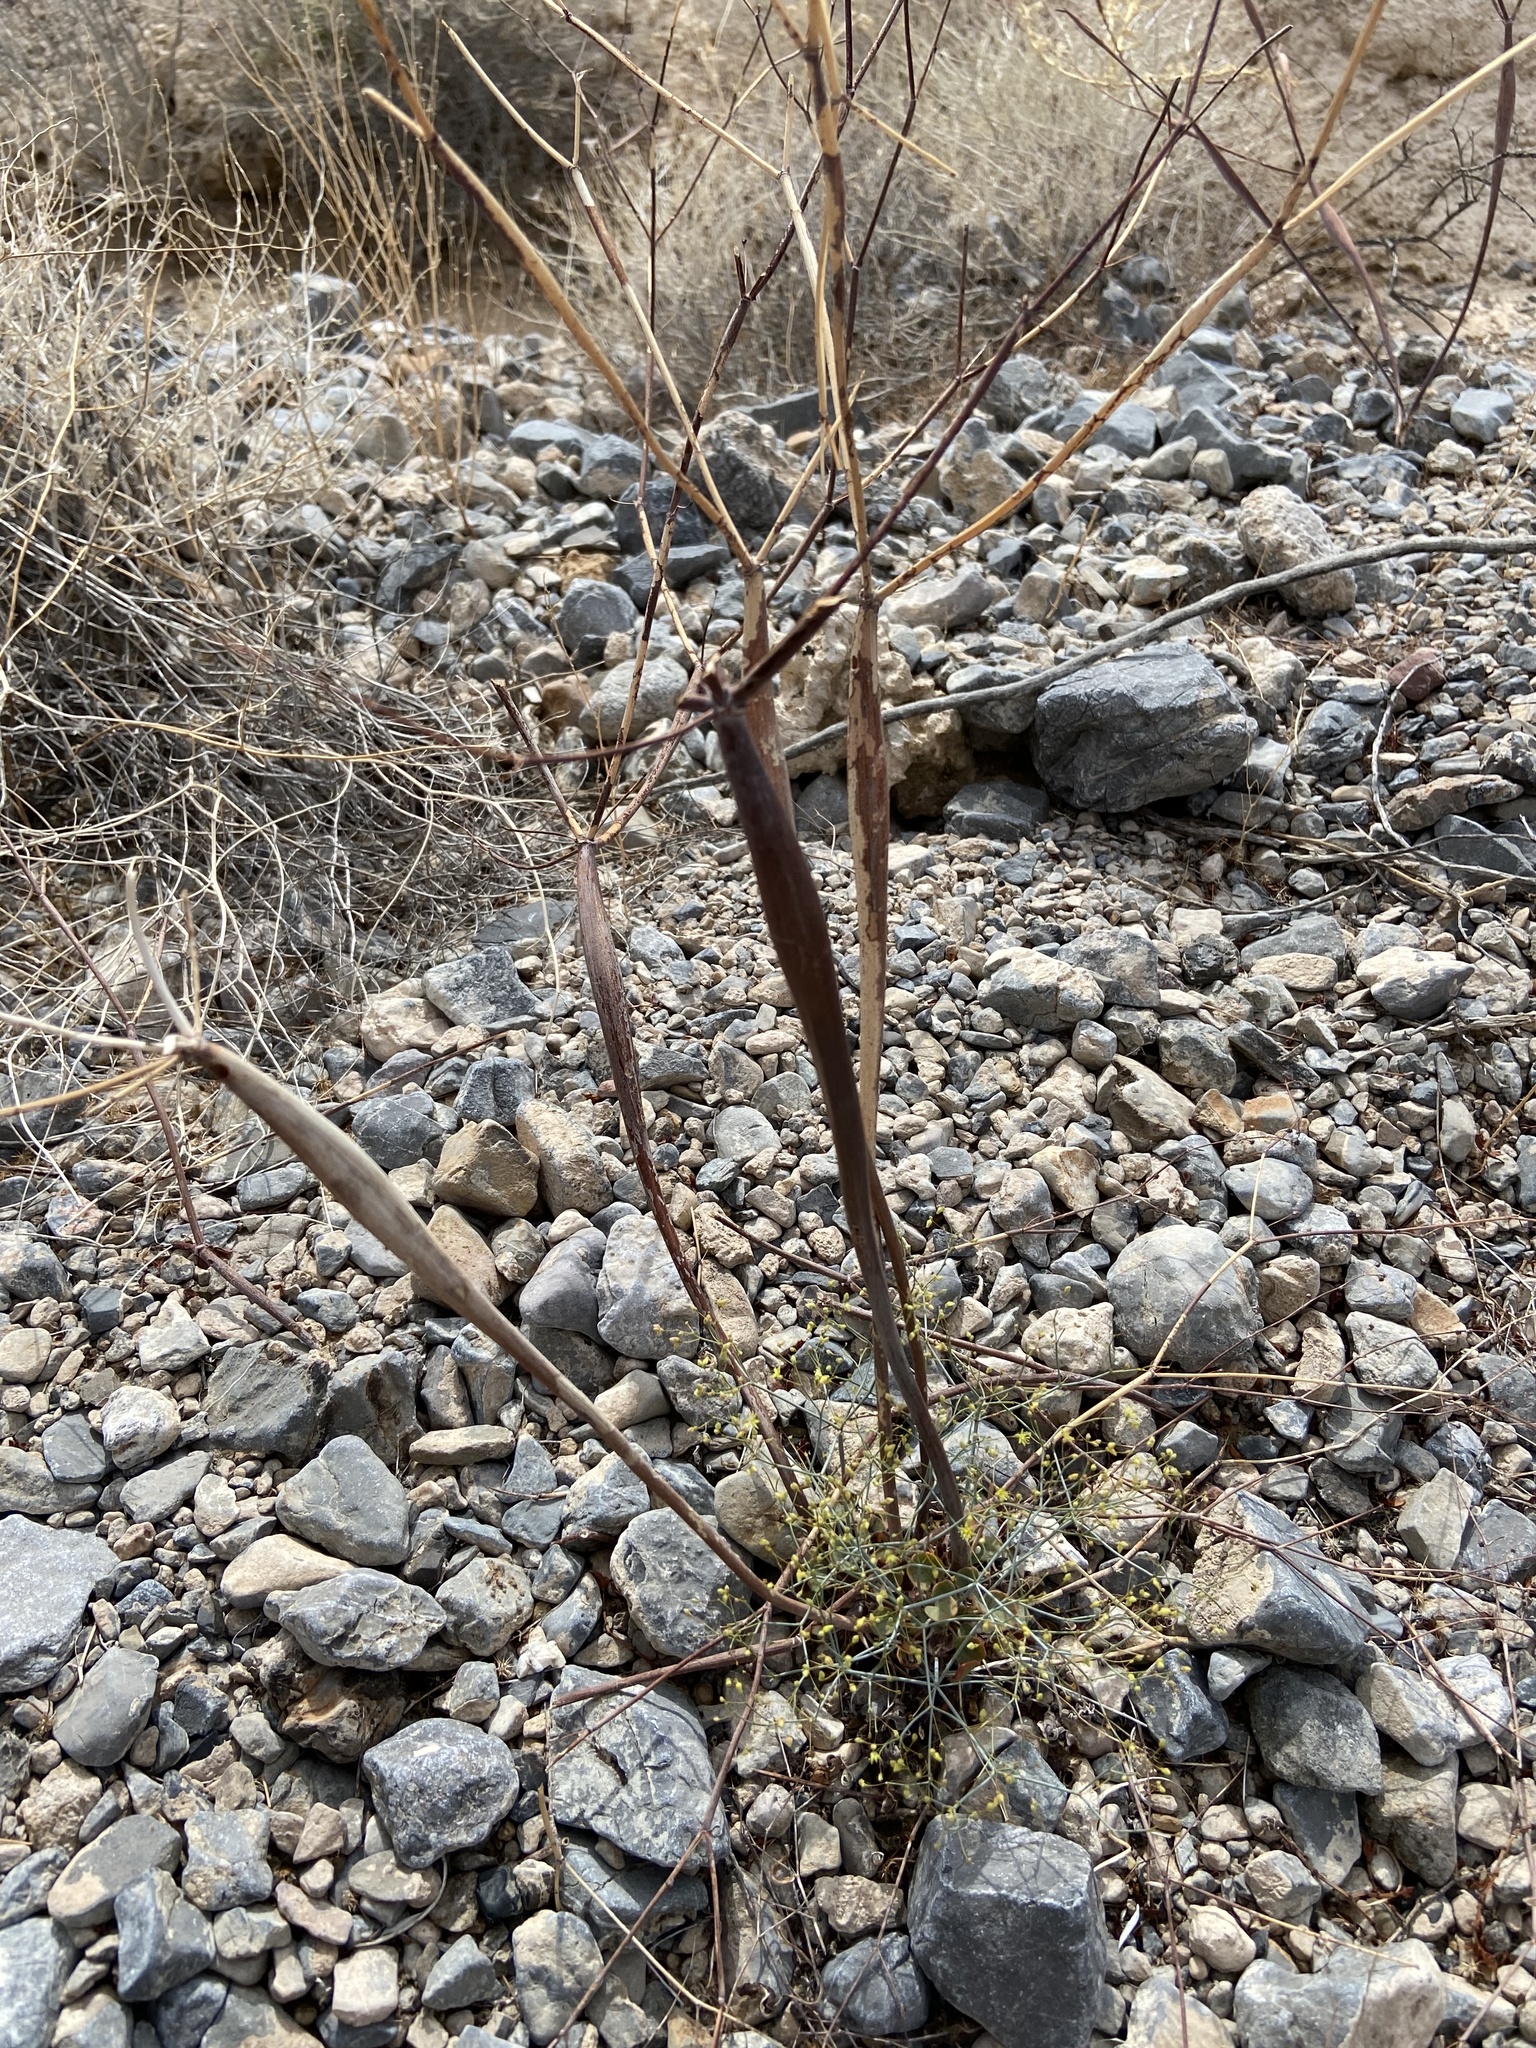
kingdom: Plantae
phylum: Tracheophyta
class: Magnoliopsida
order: Caryophyllales
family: Polygonaceae
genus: Eriogonum
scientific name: Eriogonum inflatum
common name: Desert trumpet
